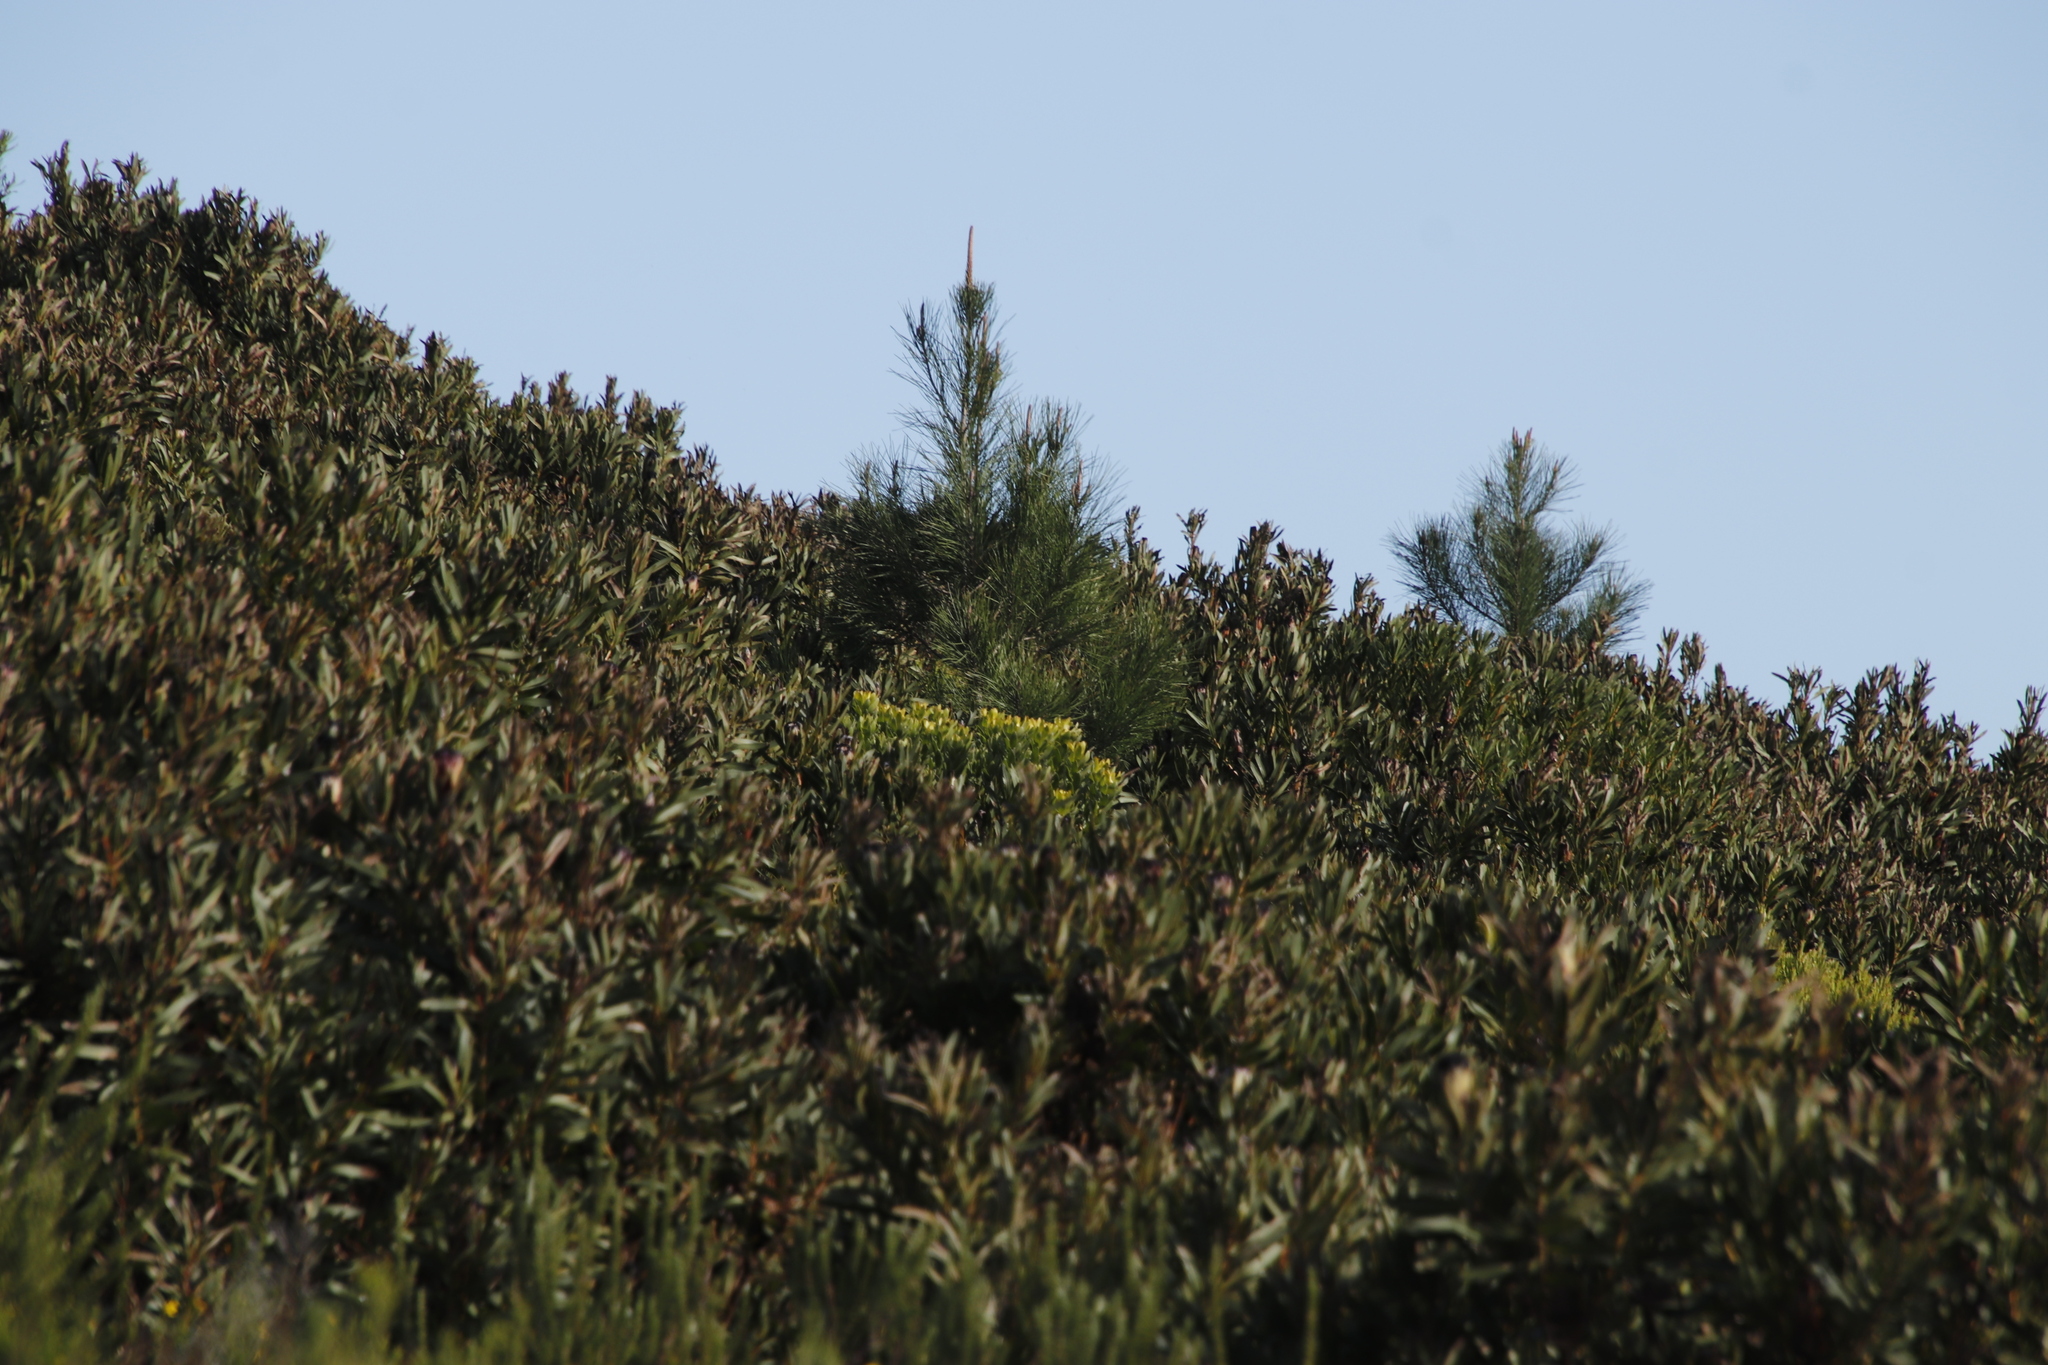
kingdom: Plantae
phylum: Tracheophyta
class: Pinopsida
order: Pinales
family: Pinaceae
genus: Pinus
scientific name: Pinus radiata
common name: Monterey pine
